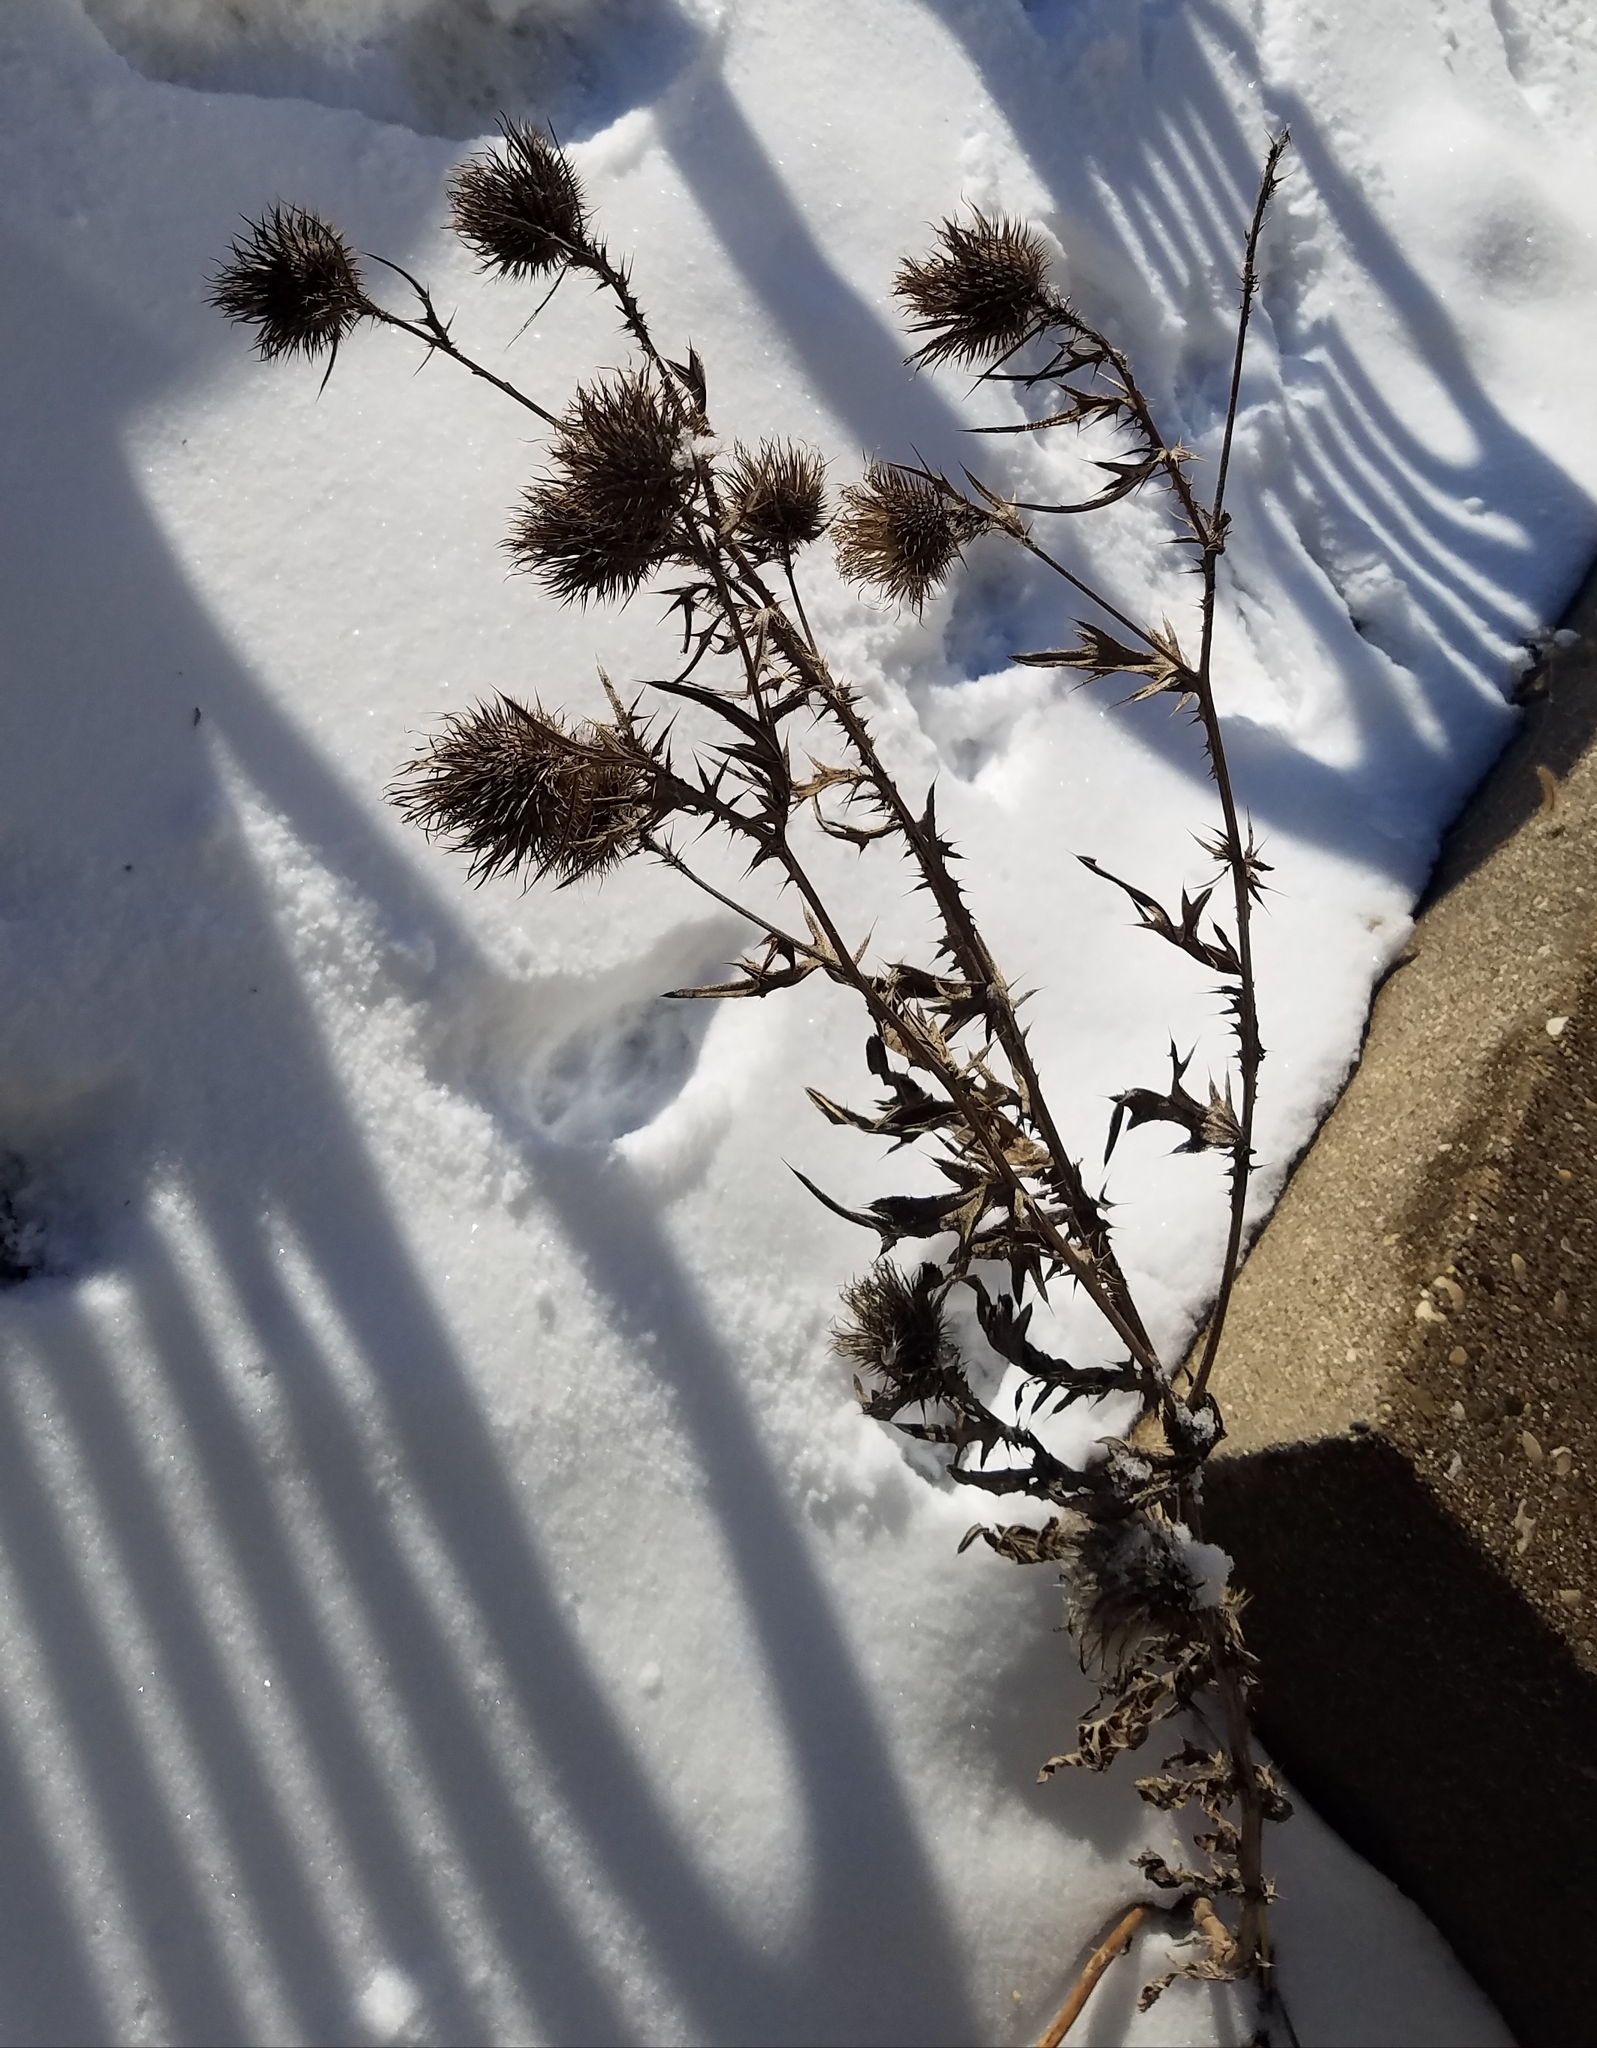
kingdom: Plantae
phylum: Tracheophyta
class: Magnoliopsida
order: Asterales
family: Asteraceae
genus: Cirsium
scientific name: Cirsium vulgare
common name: Bull thistle
